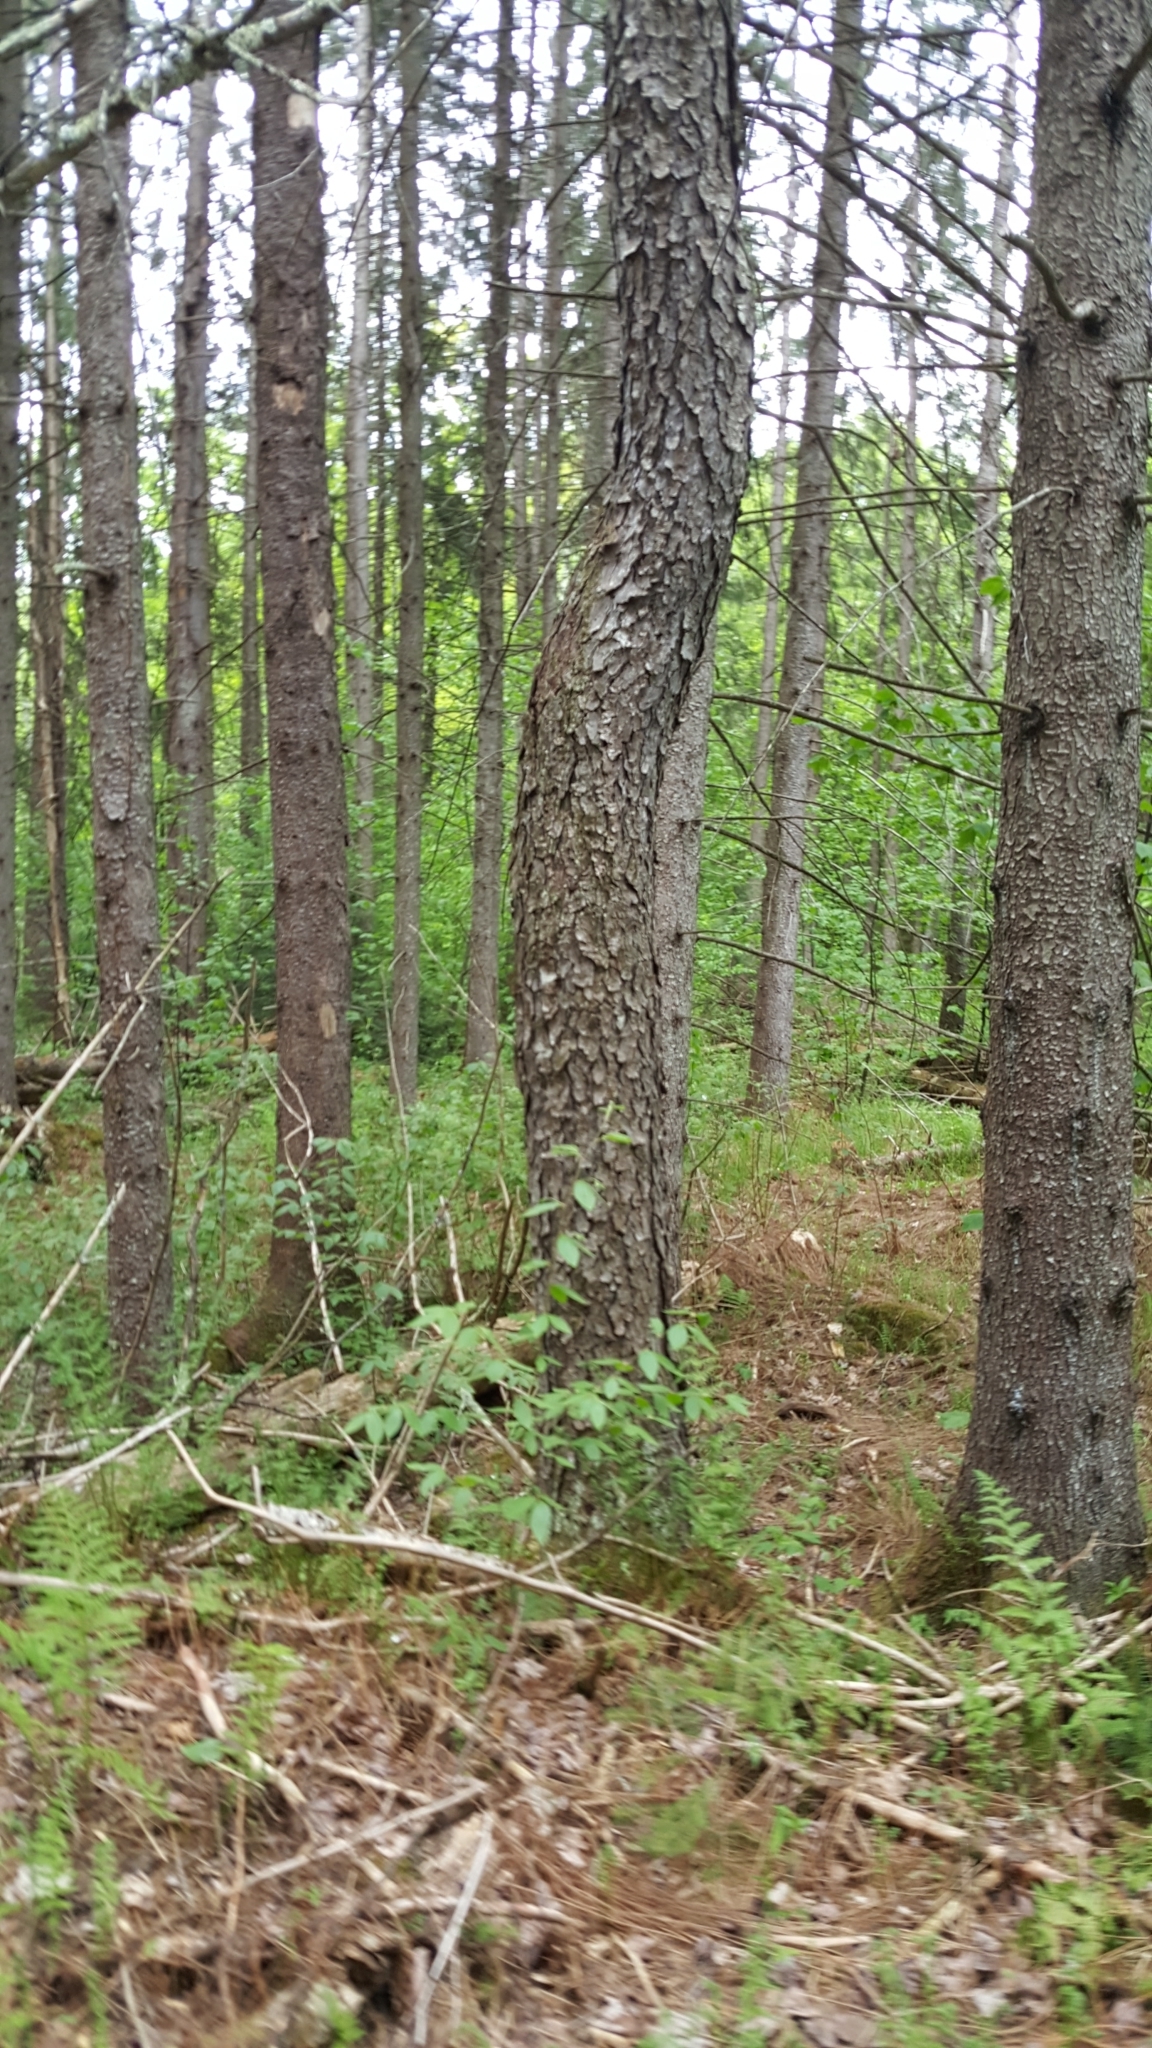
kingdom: Plantae
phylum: Tracheophyta
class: Magnoliopsida
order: Rosales
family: Rosaceae
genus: Prunus
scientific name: Prunus serotina
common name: Black cherry
